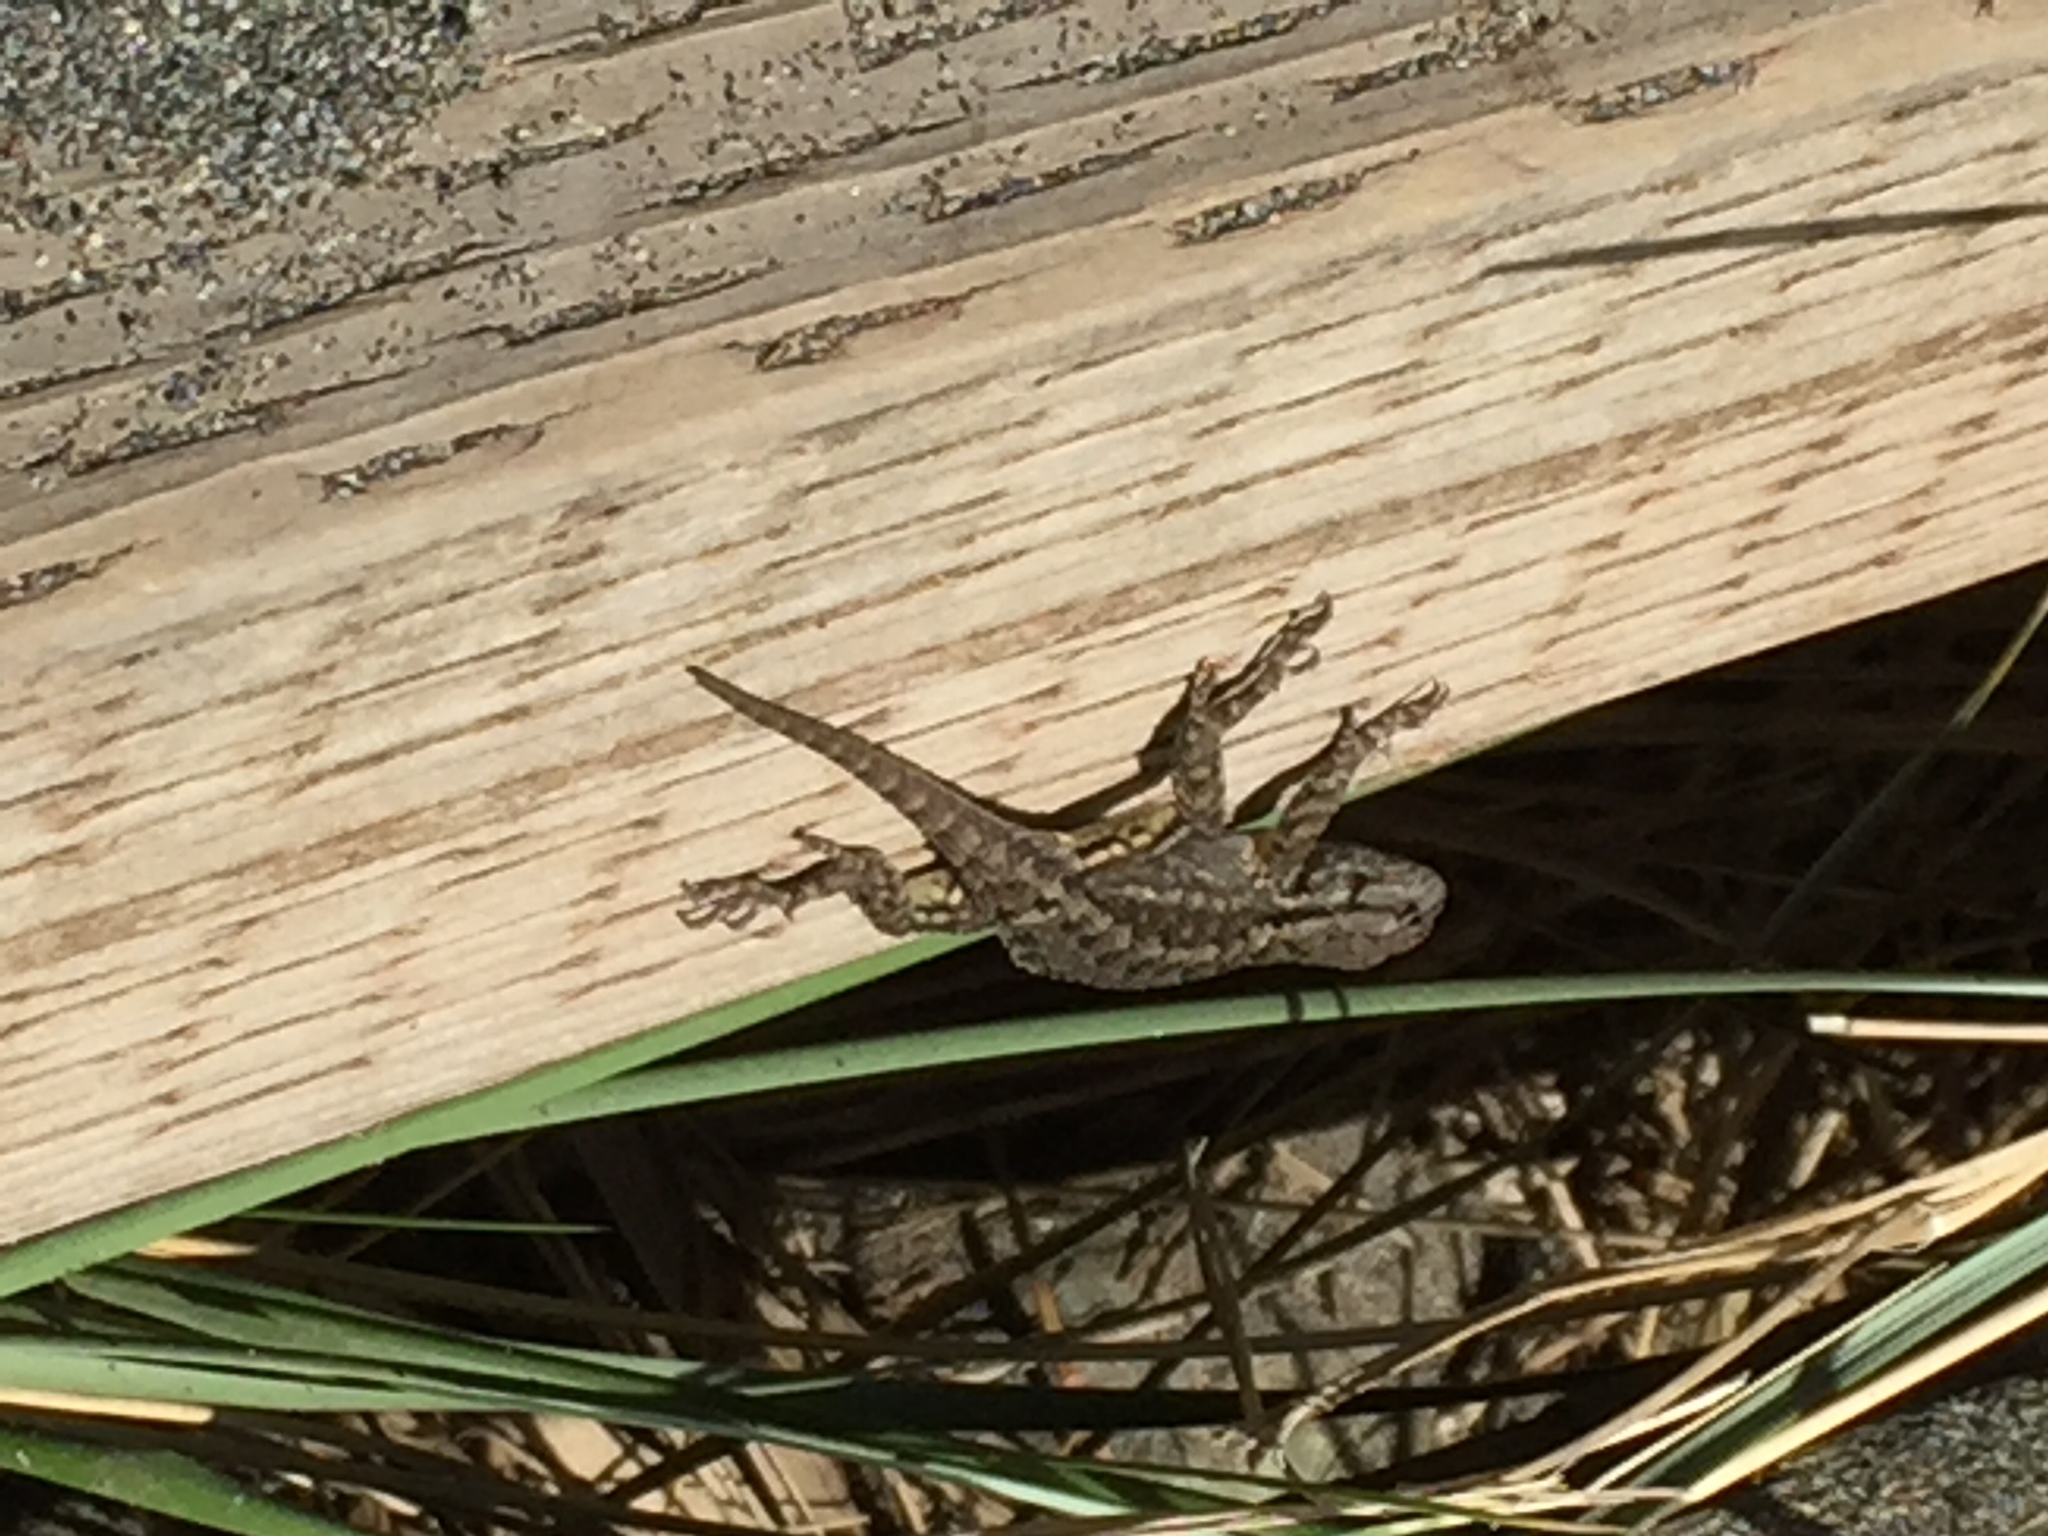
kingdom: Animalia
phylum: Chordata
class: Squamata
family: Phrynosomatidae
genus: Sceloporus
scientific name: Sceloporus occidentalis
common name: Western fence lizard
